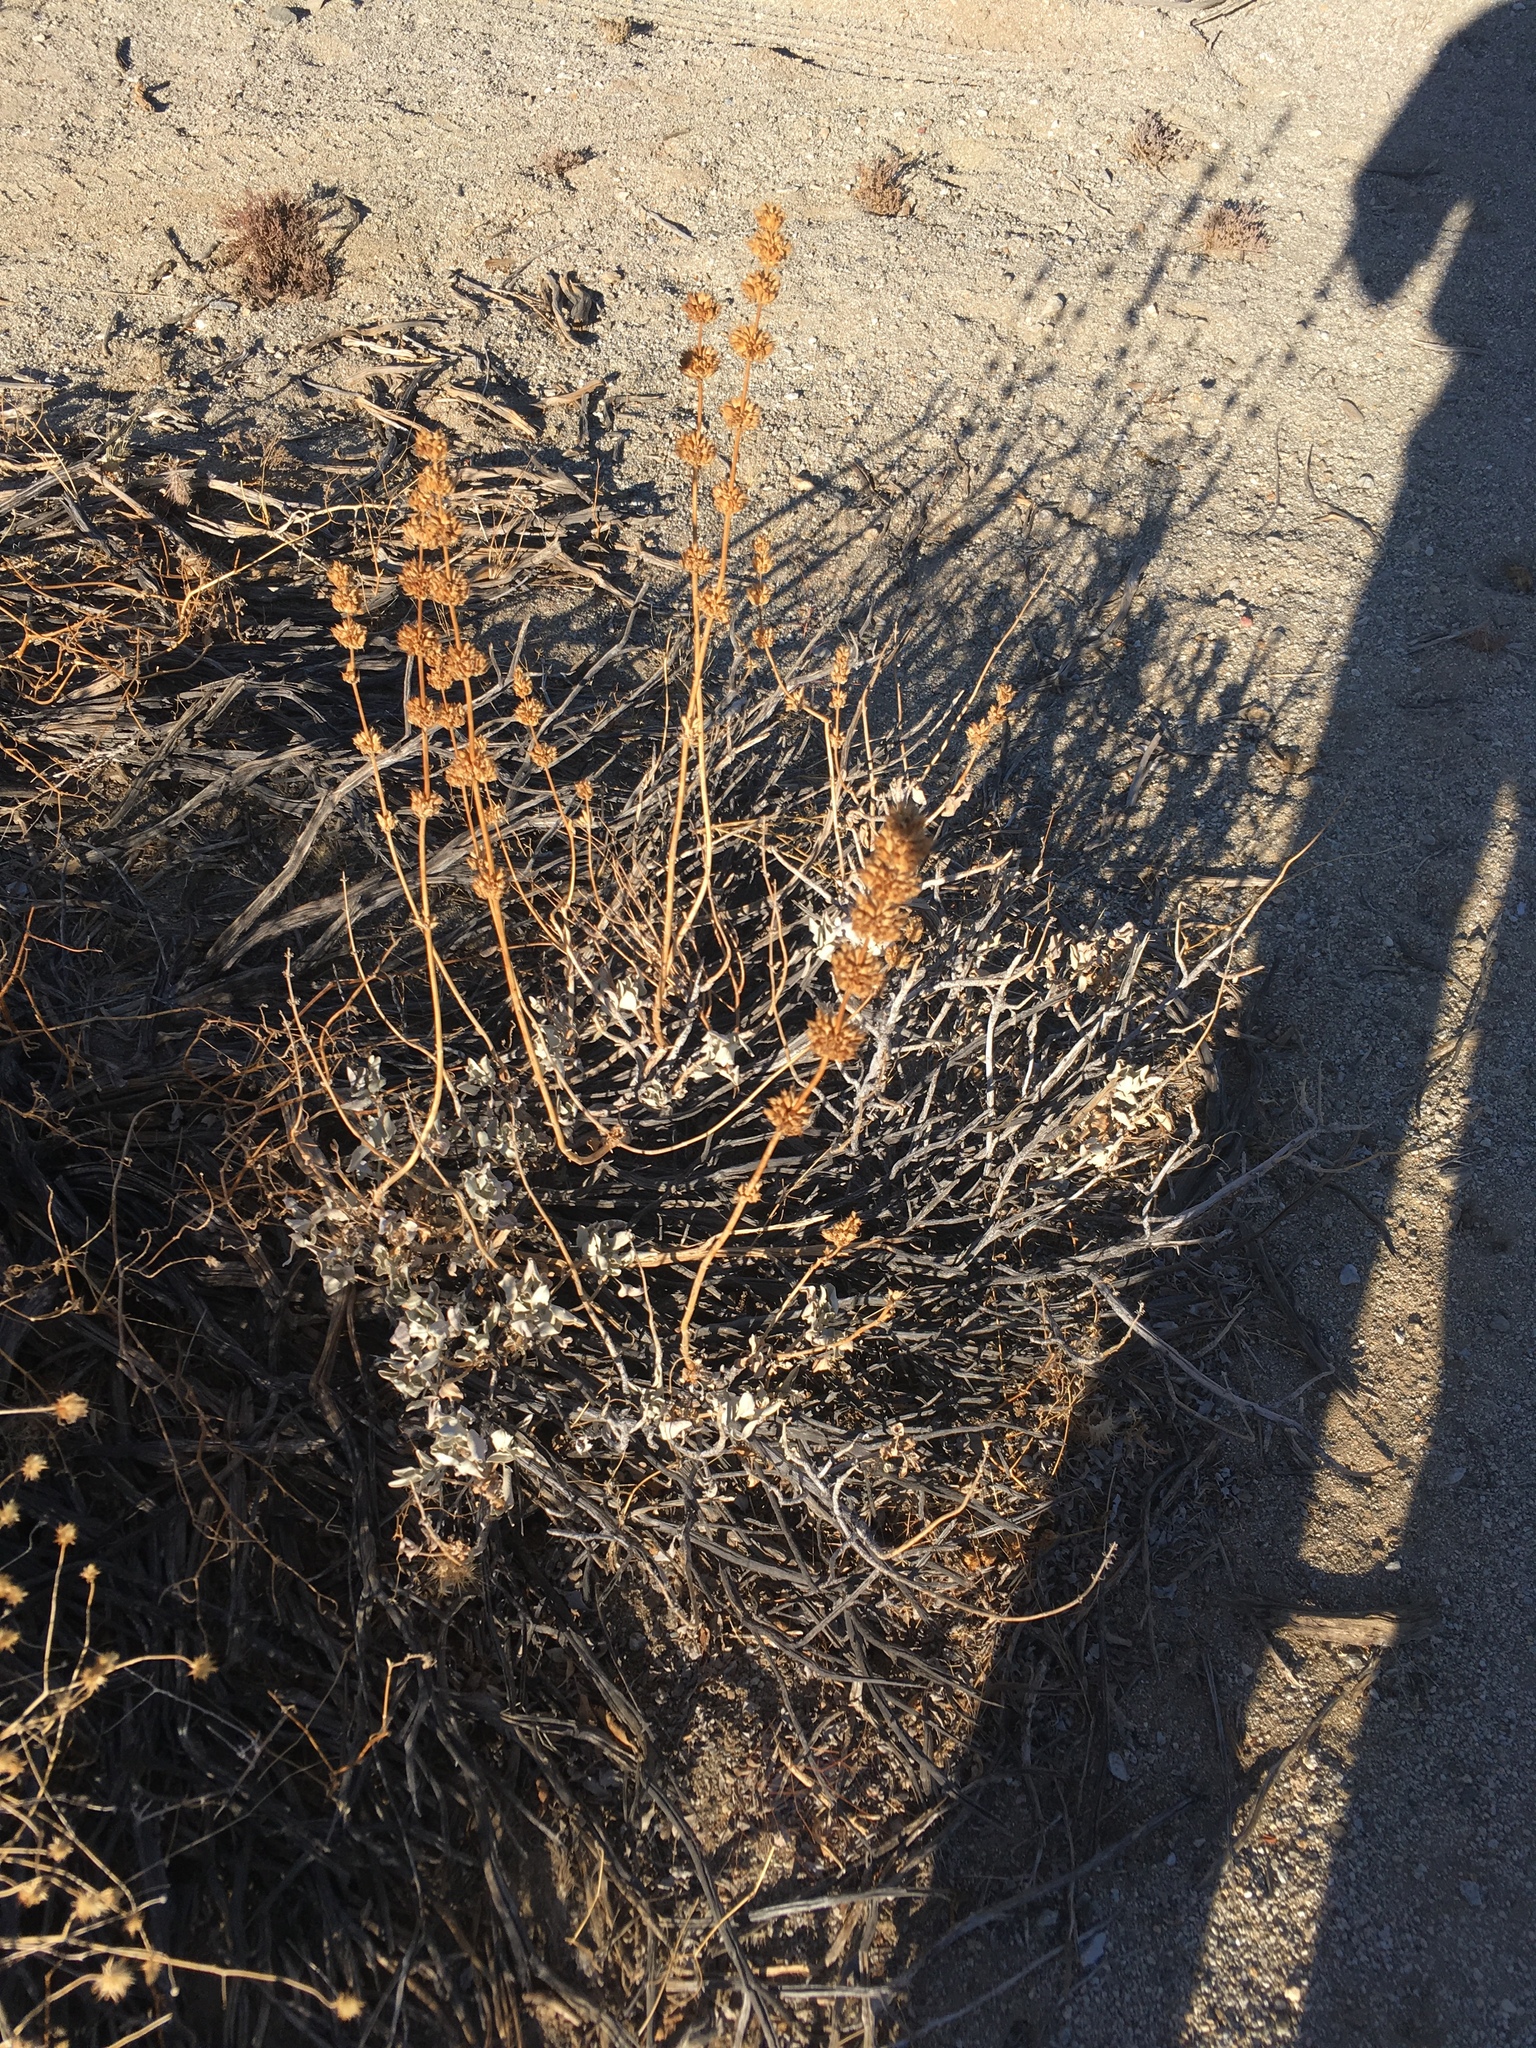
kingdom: Plantae
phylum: Tracheophyta
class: Magnoliopsida
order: Lamiales
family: Lamiaceae
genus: Salvia
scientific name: Salvia vaseyi
